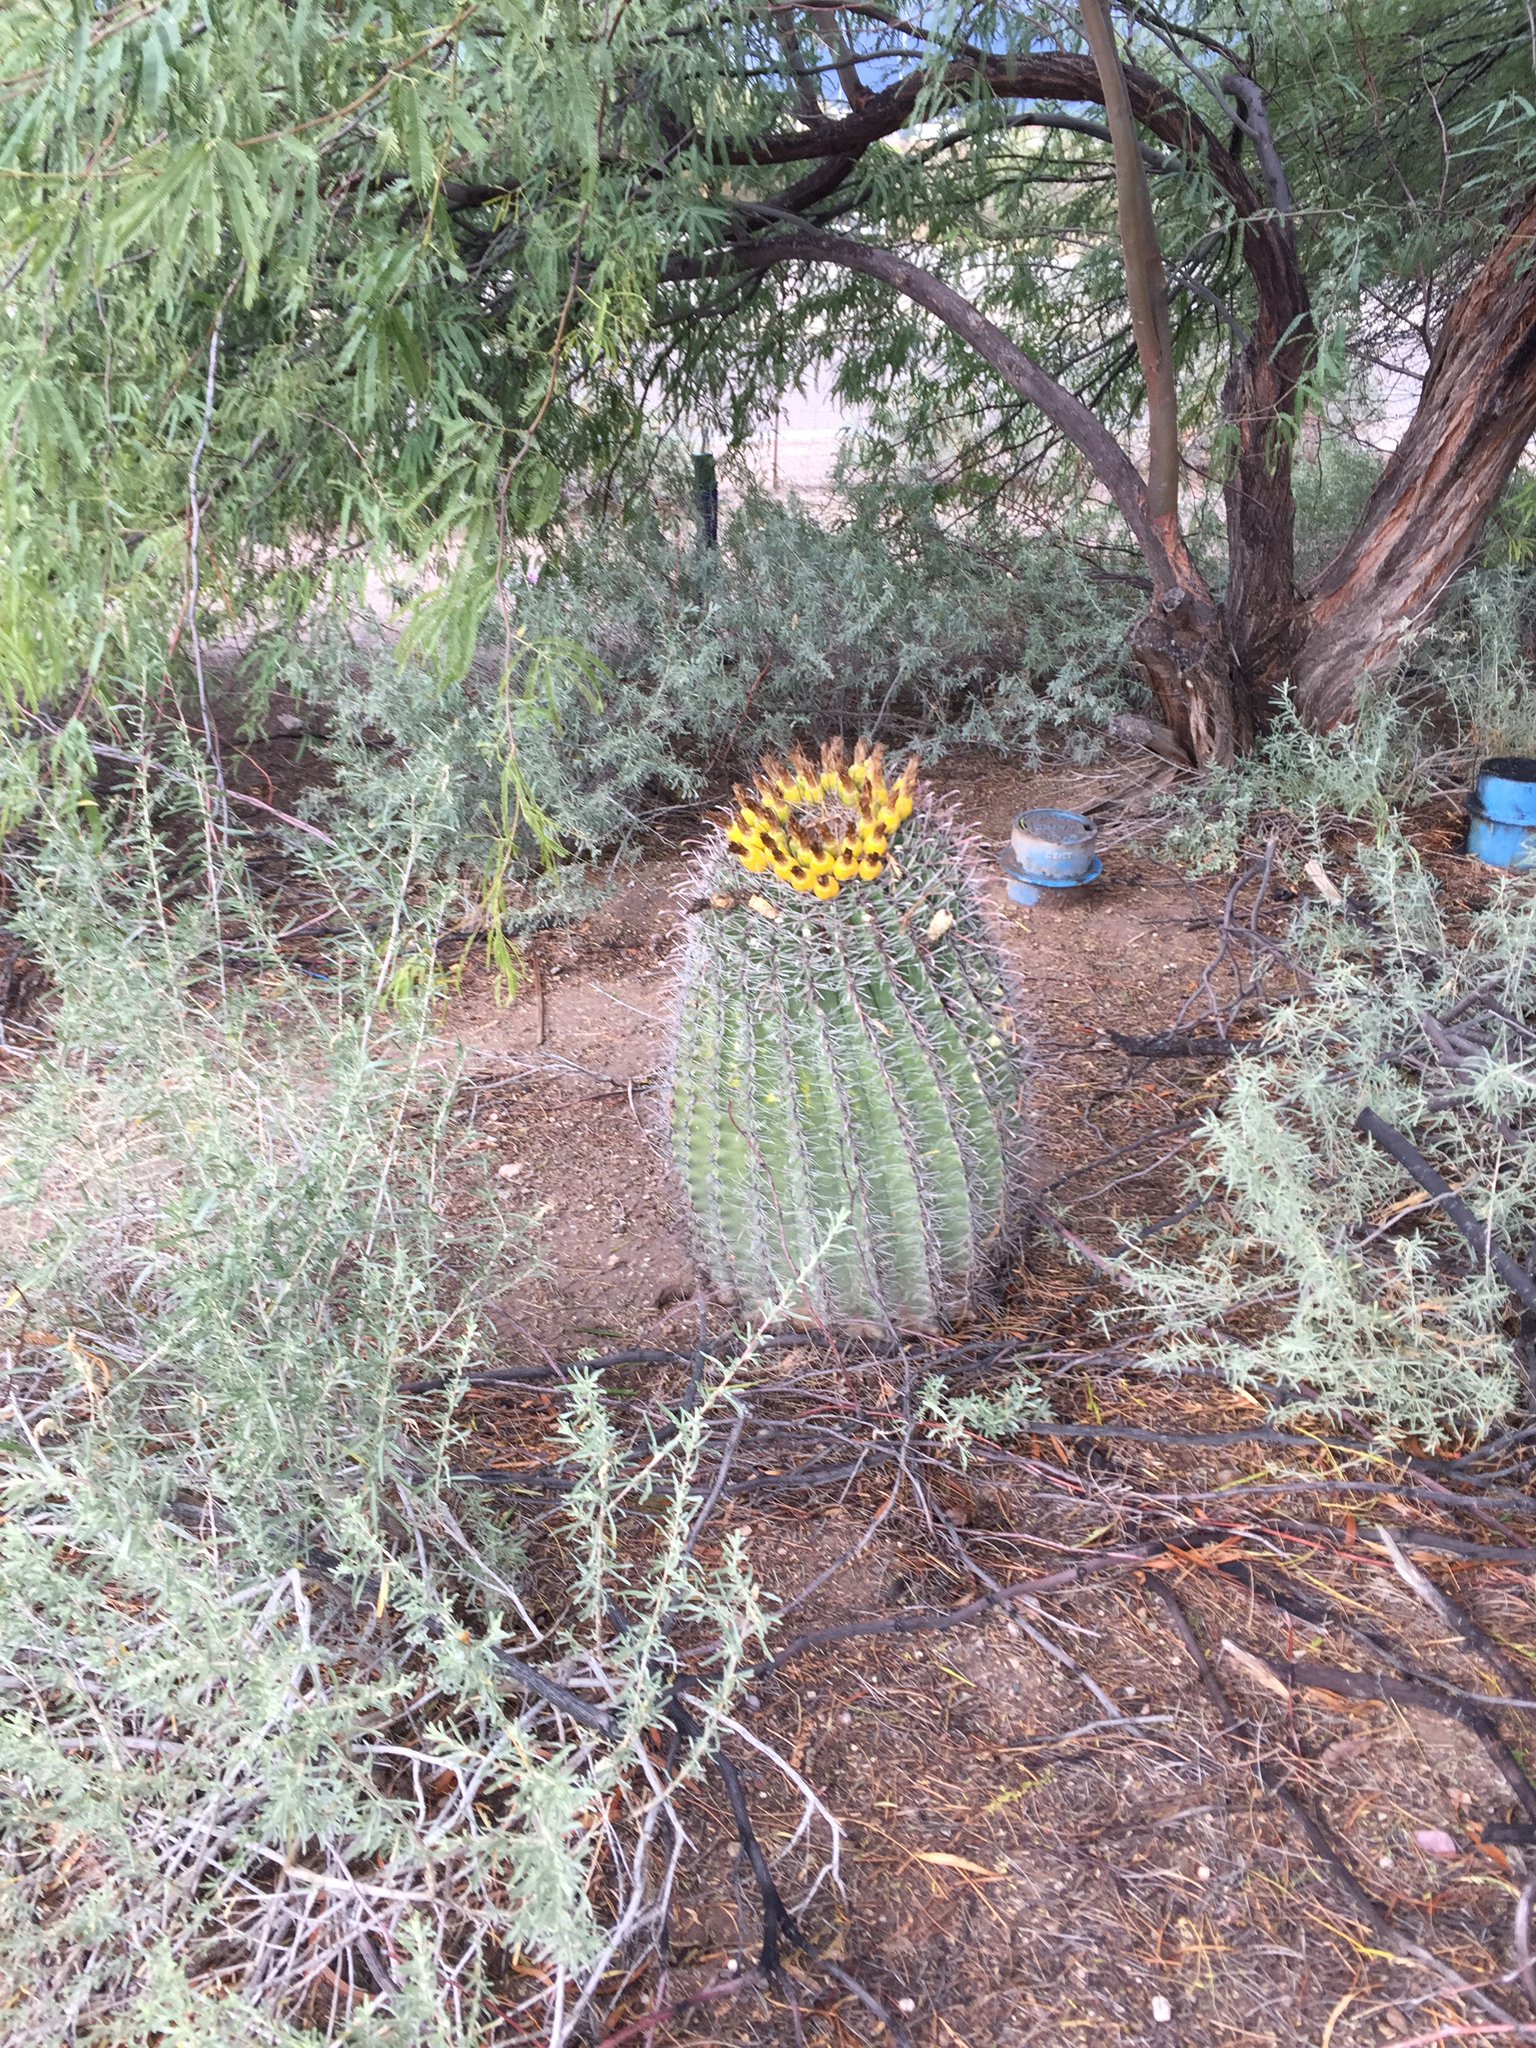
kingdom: Plantae
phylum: Tracheophyta
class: Magnoliopsida
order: Caryophyllales
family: Cactaceae
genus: Ferocactus
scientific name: Ferocactus wislizeni
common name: Candy barrel cactus
